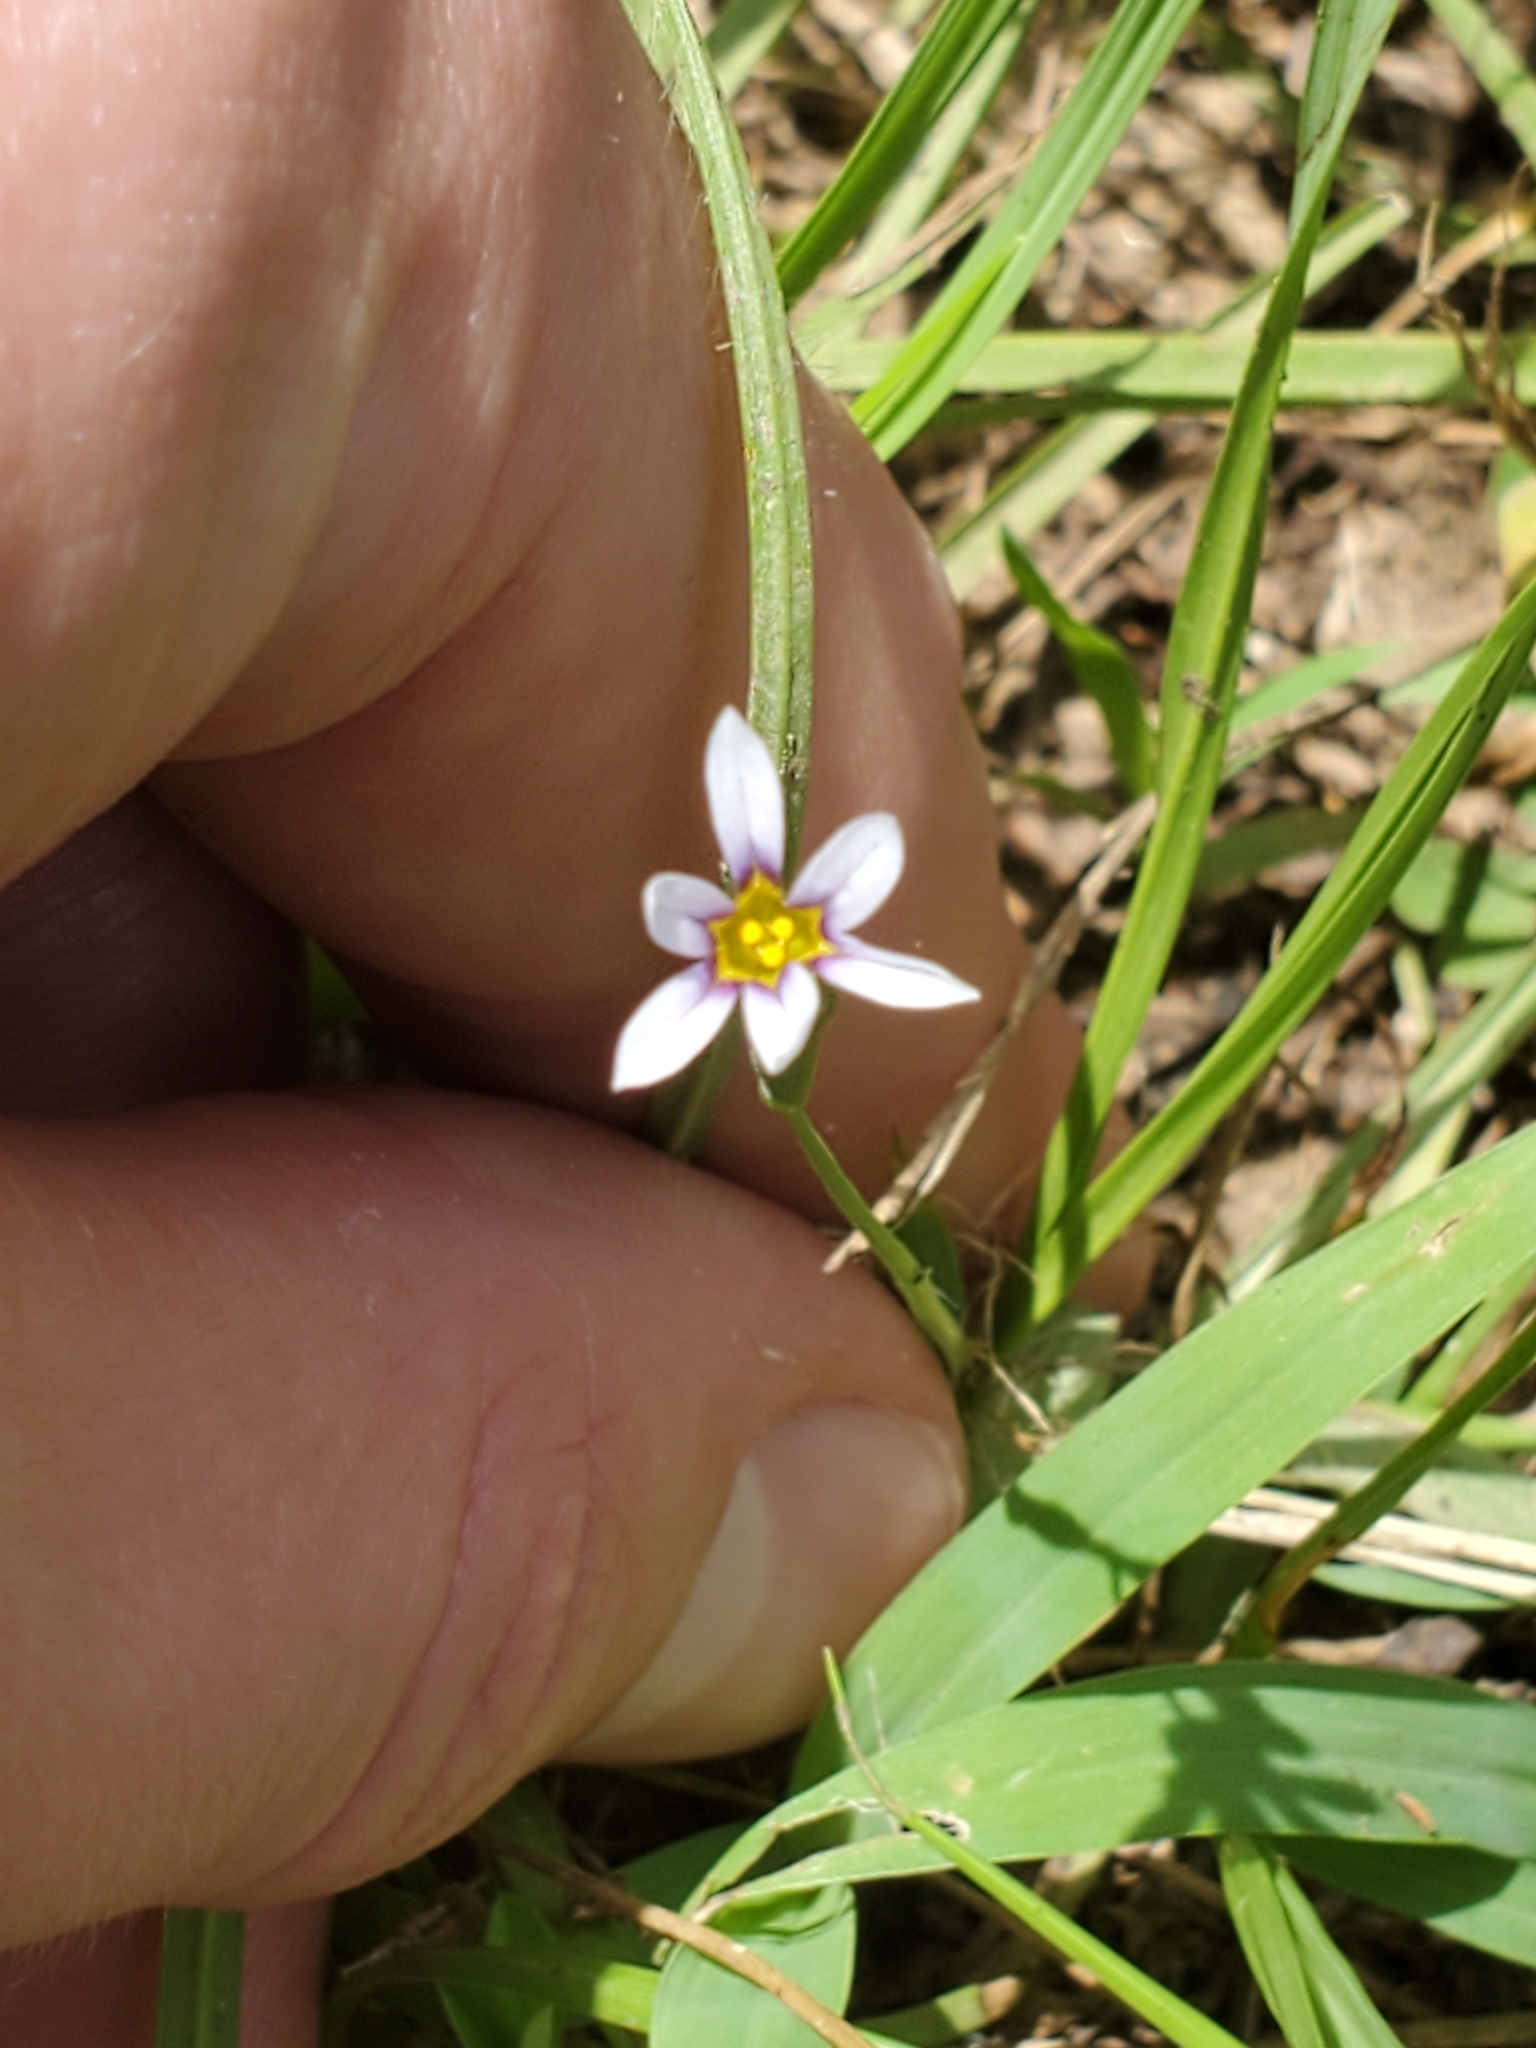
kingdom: Plantae
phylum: Tracheophyta
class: Liliopsida
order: Asparagales
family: Iridaceae
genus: Sisyrinchium
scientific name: Sisyrinchium micranthum
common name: Bermuda pigroot
